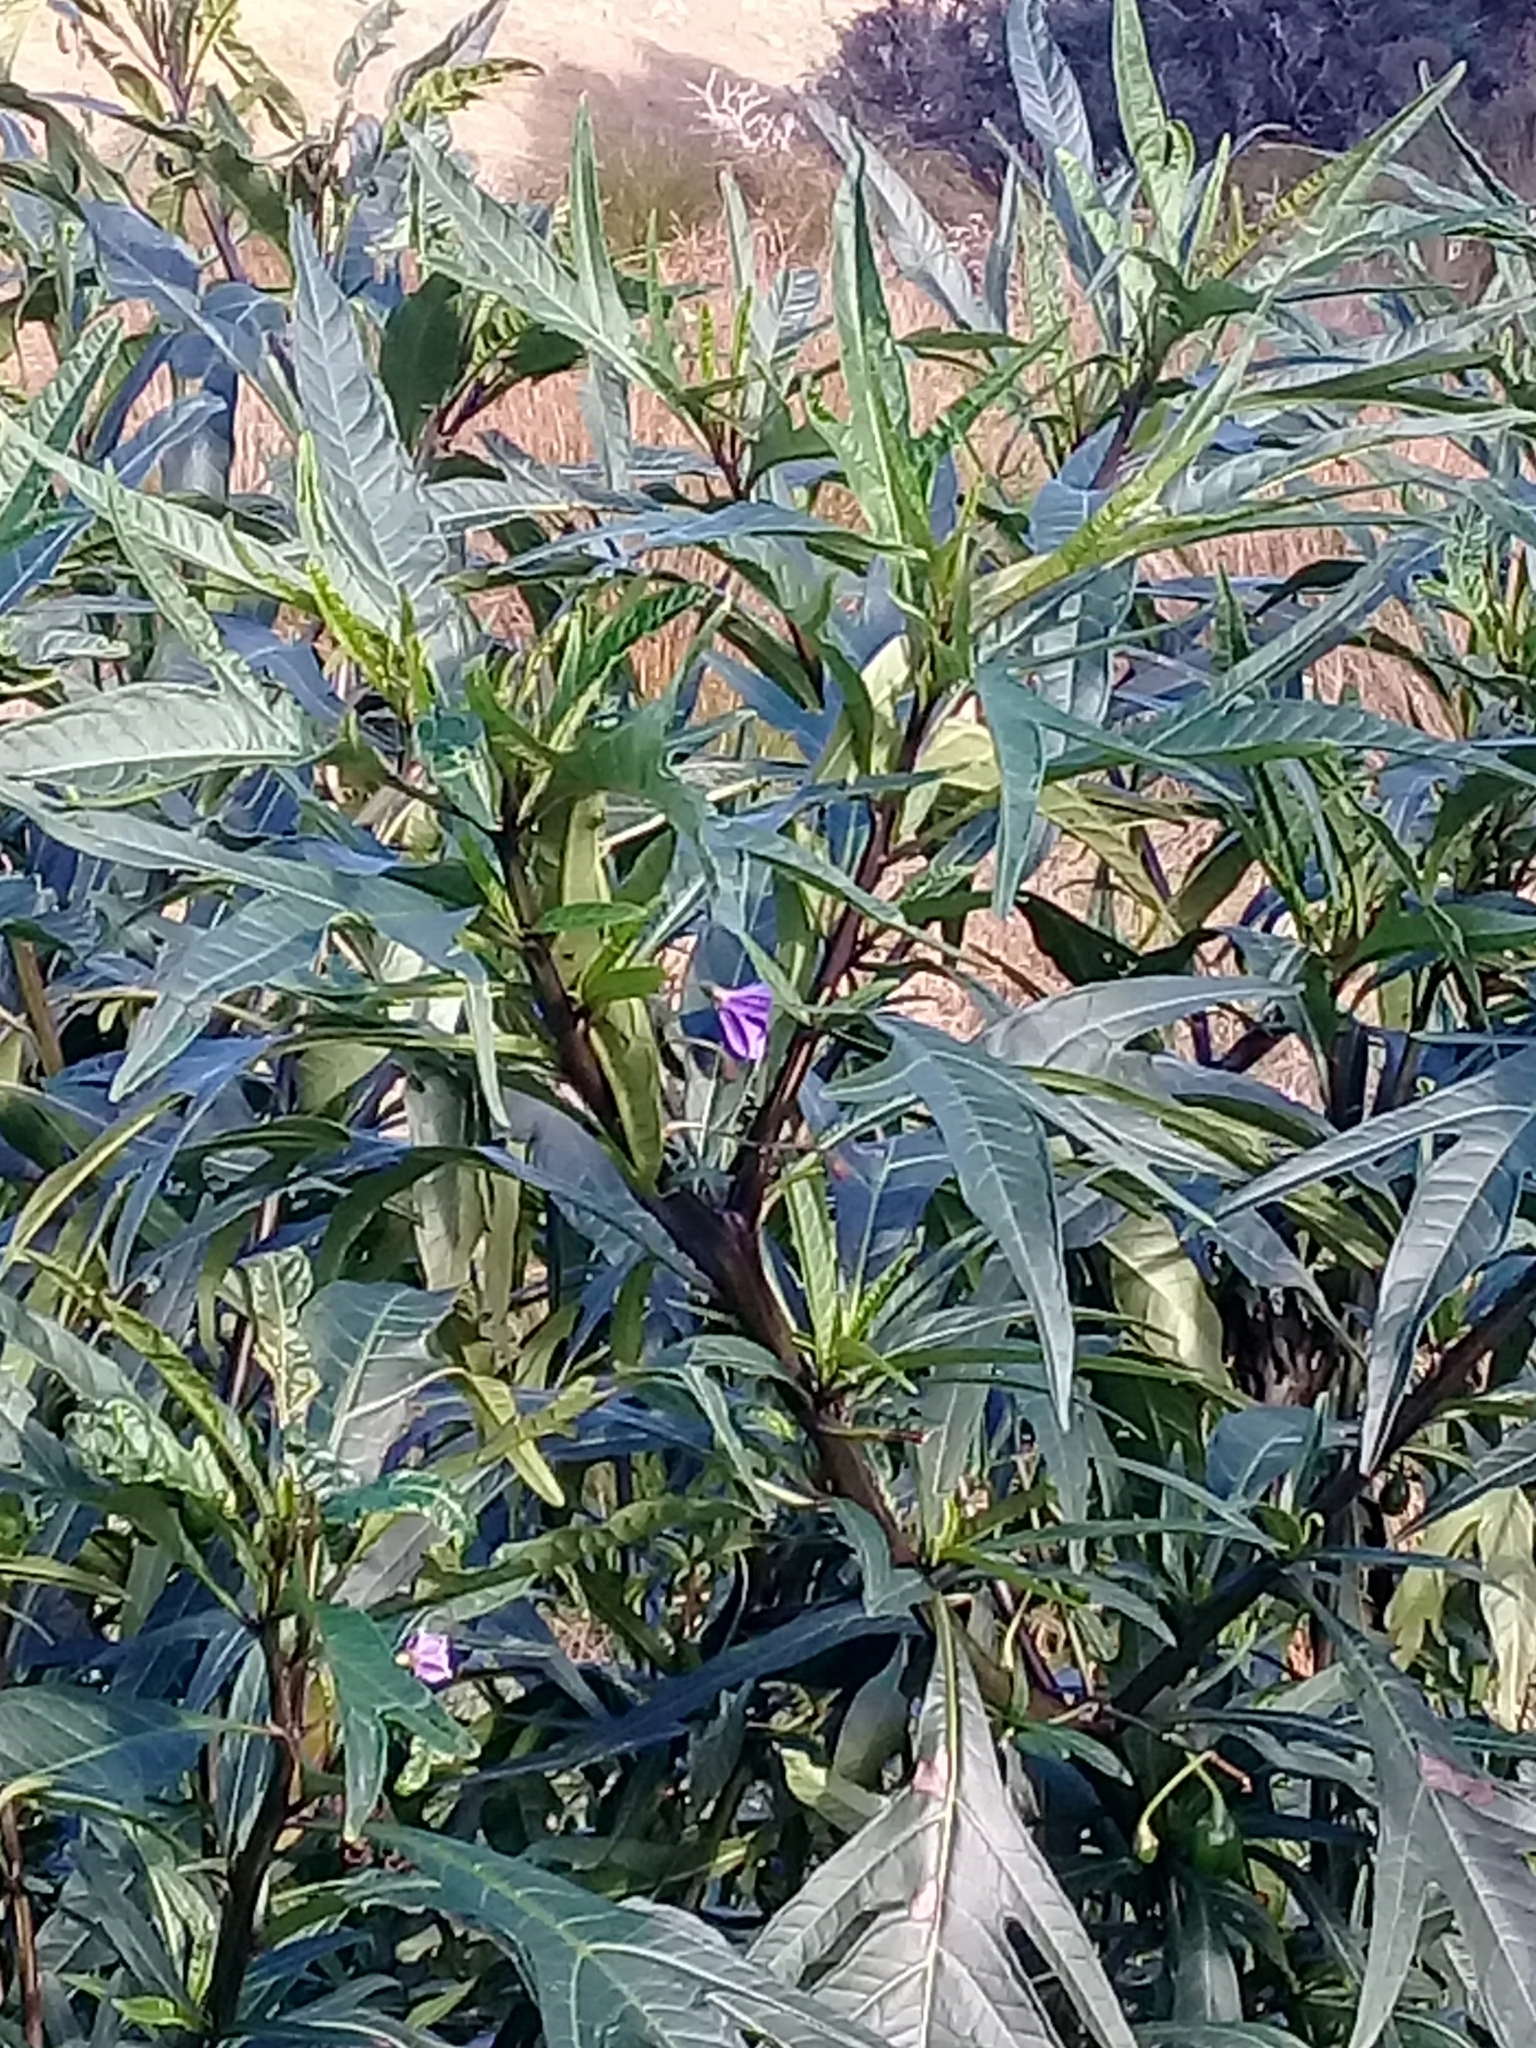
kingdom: Plantae
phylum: Tracheophyta
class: Magnoliopsida
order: Solanales
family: Solanaceae
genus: Solanum
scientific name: Solanum laciniatum
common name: Kangaroo-apple
